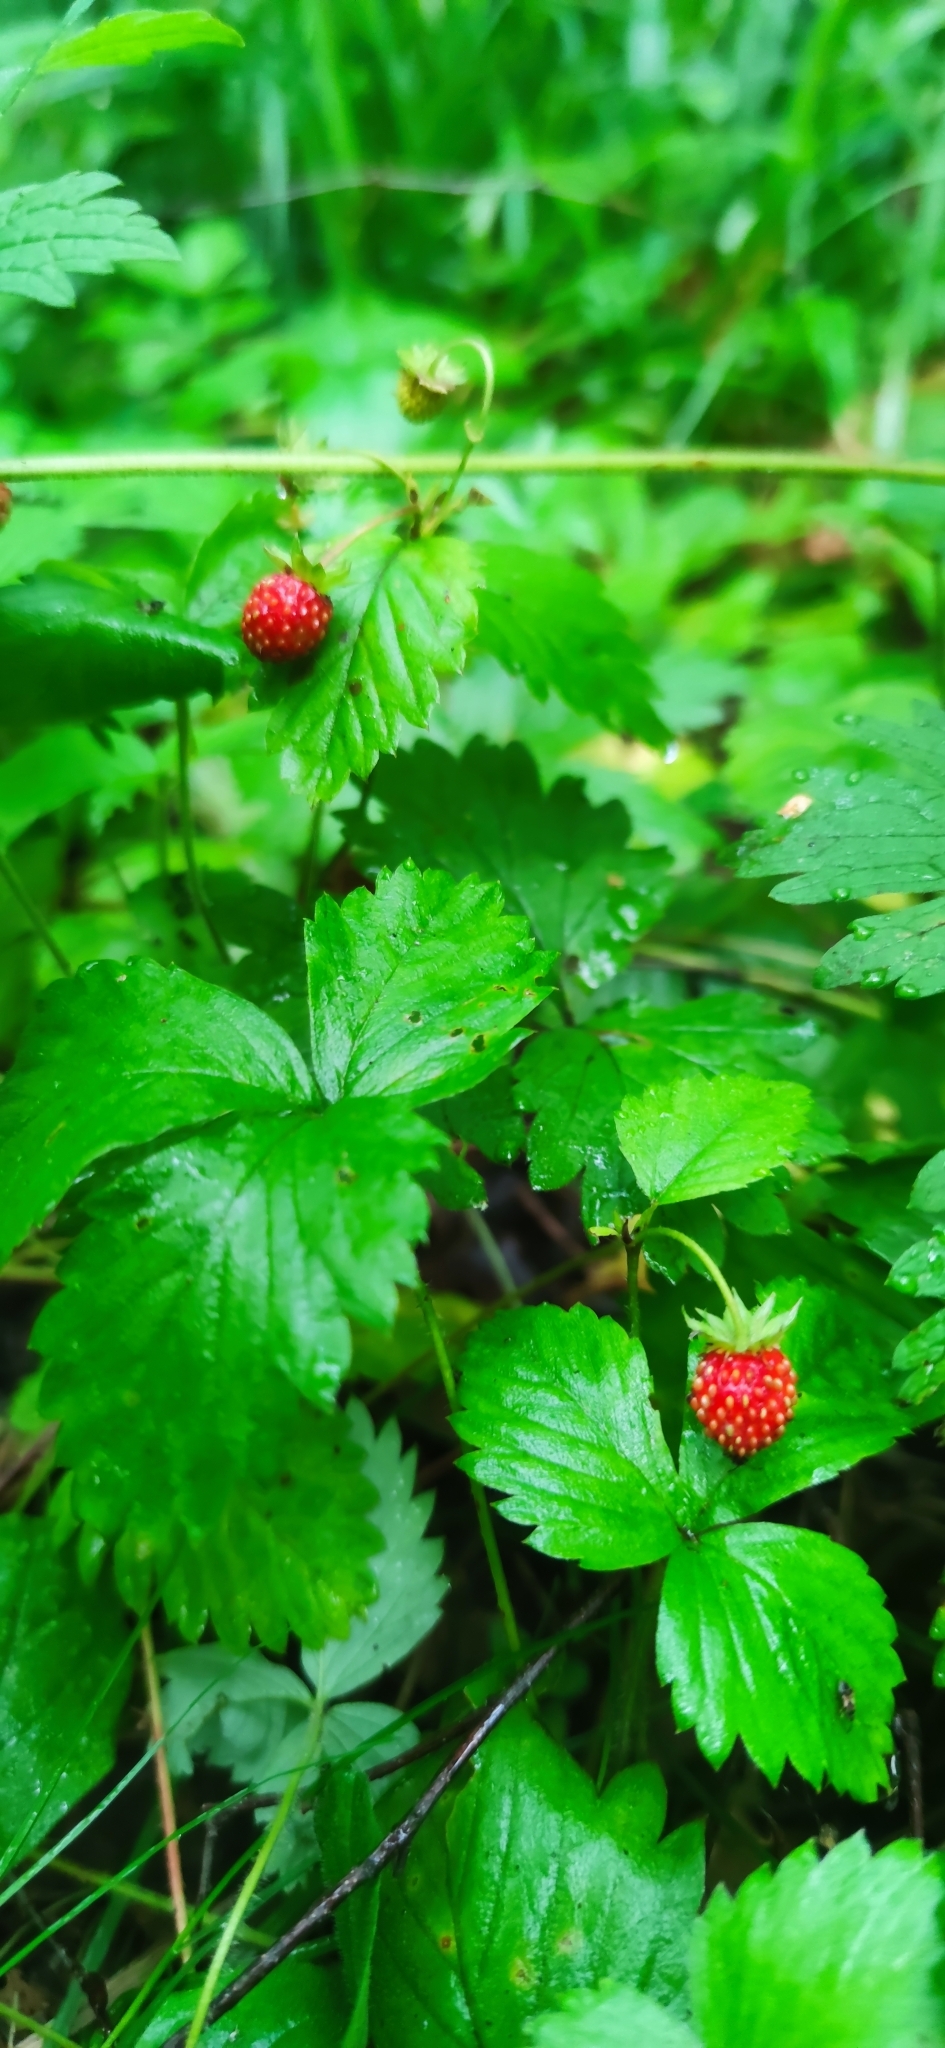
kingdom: Plantae
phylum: Tracheophyta
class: Magnoliopsida
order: Rosales
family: Rosaceae
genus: Fragaria
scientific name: Fragaria vesca
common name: Wild strawberry
